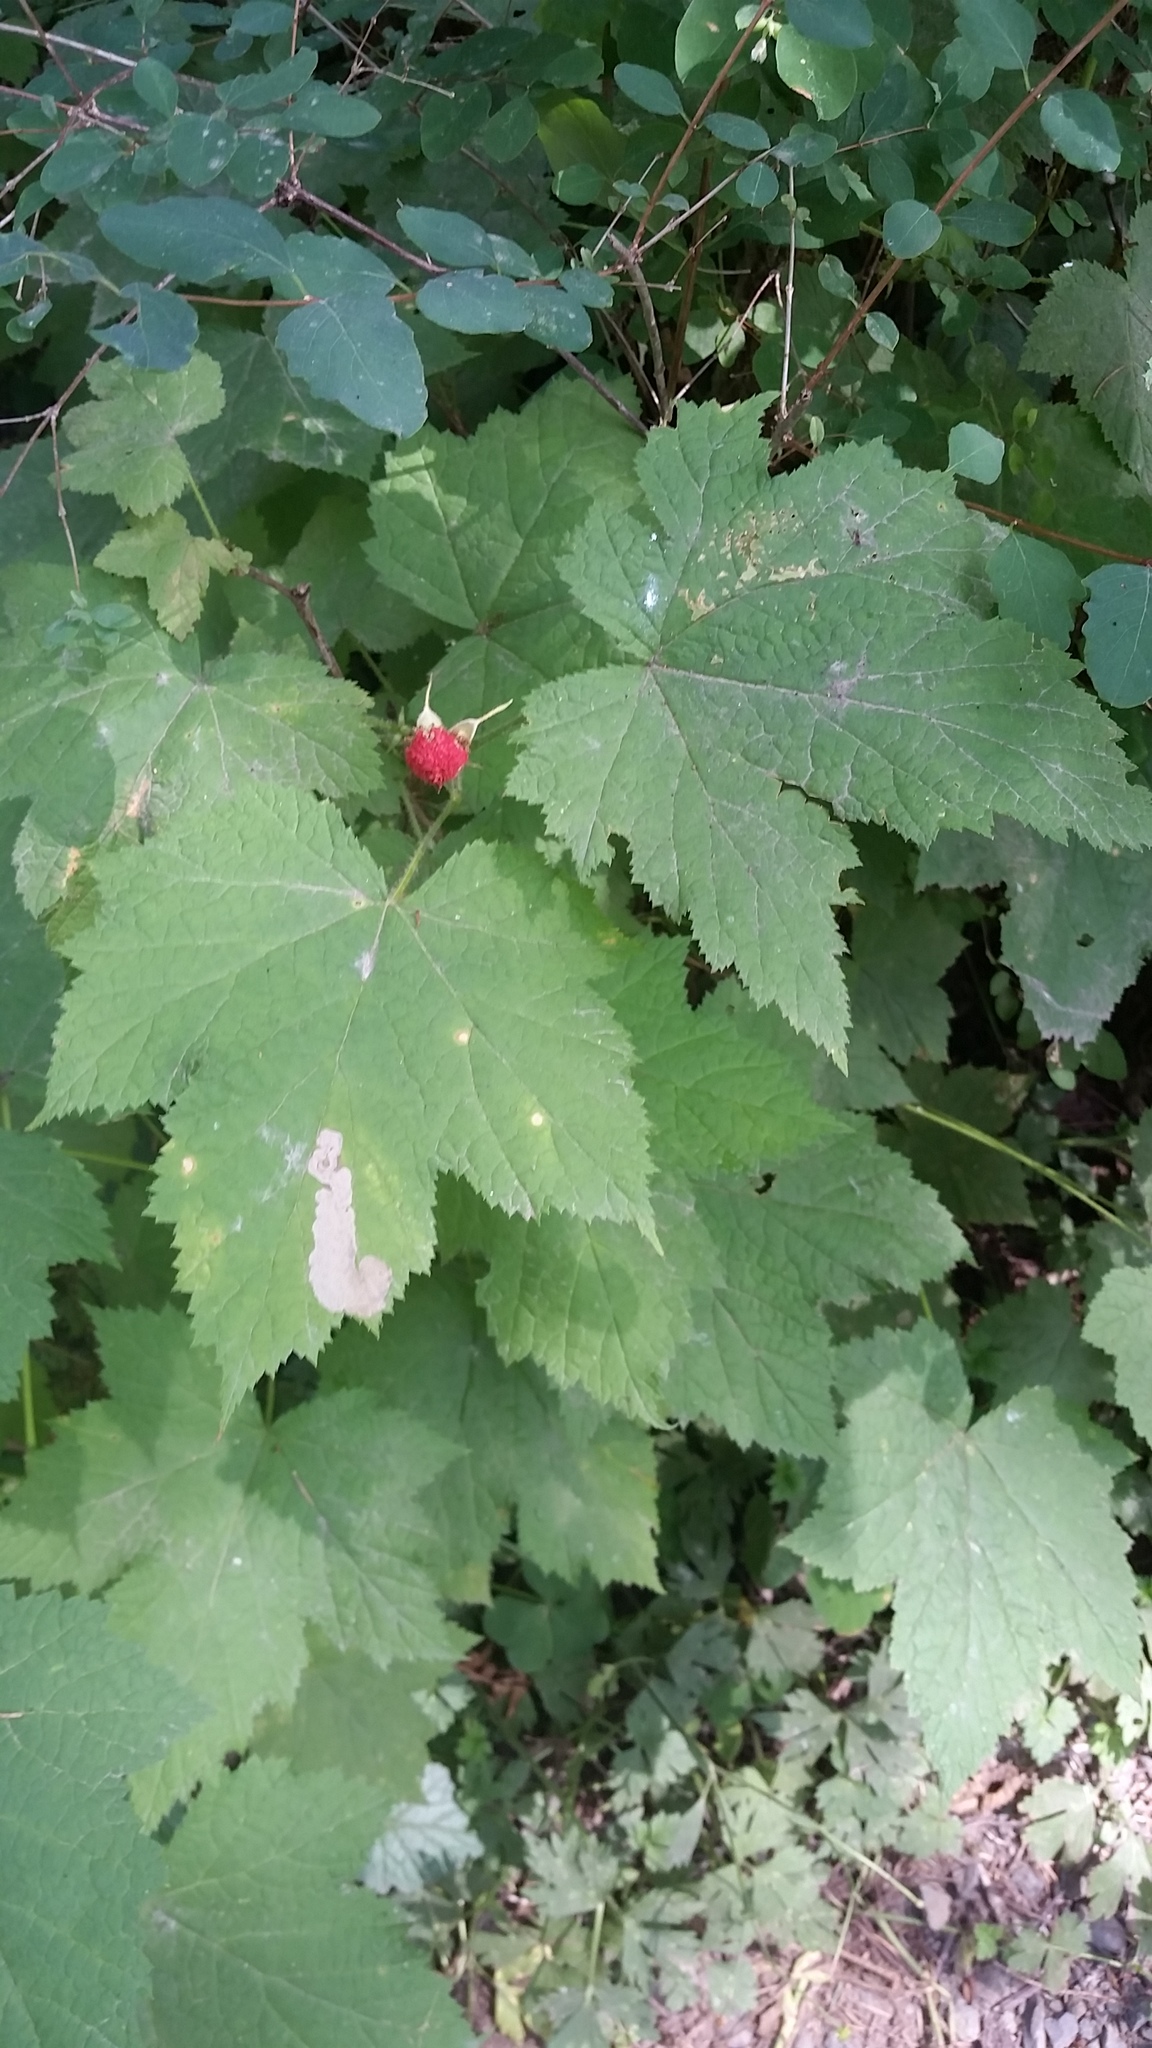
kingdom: Plantae
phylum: Tracheophyta
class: Magnoliopsida
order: Rosales
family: Rosaceae
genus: Rubus
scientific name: Rubus parviflorus
